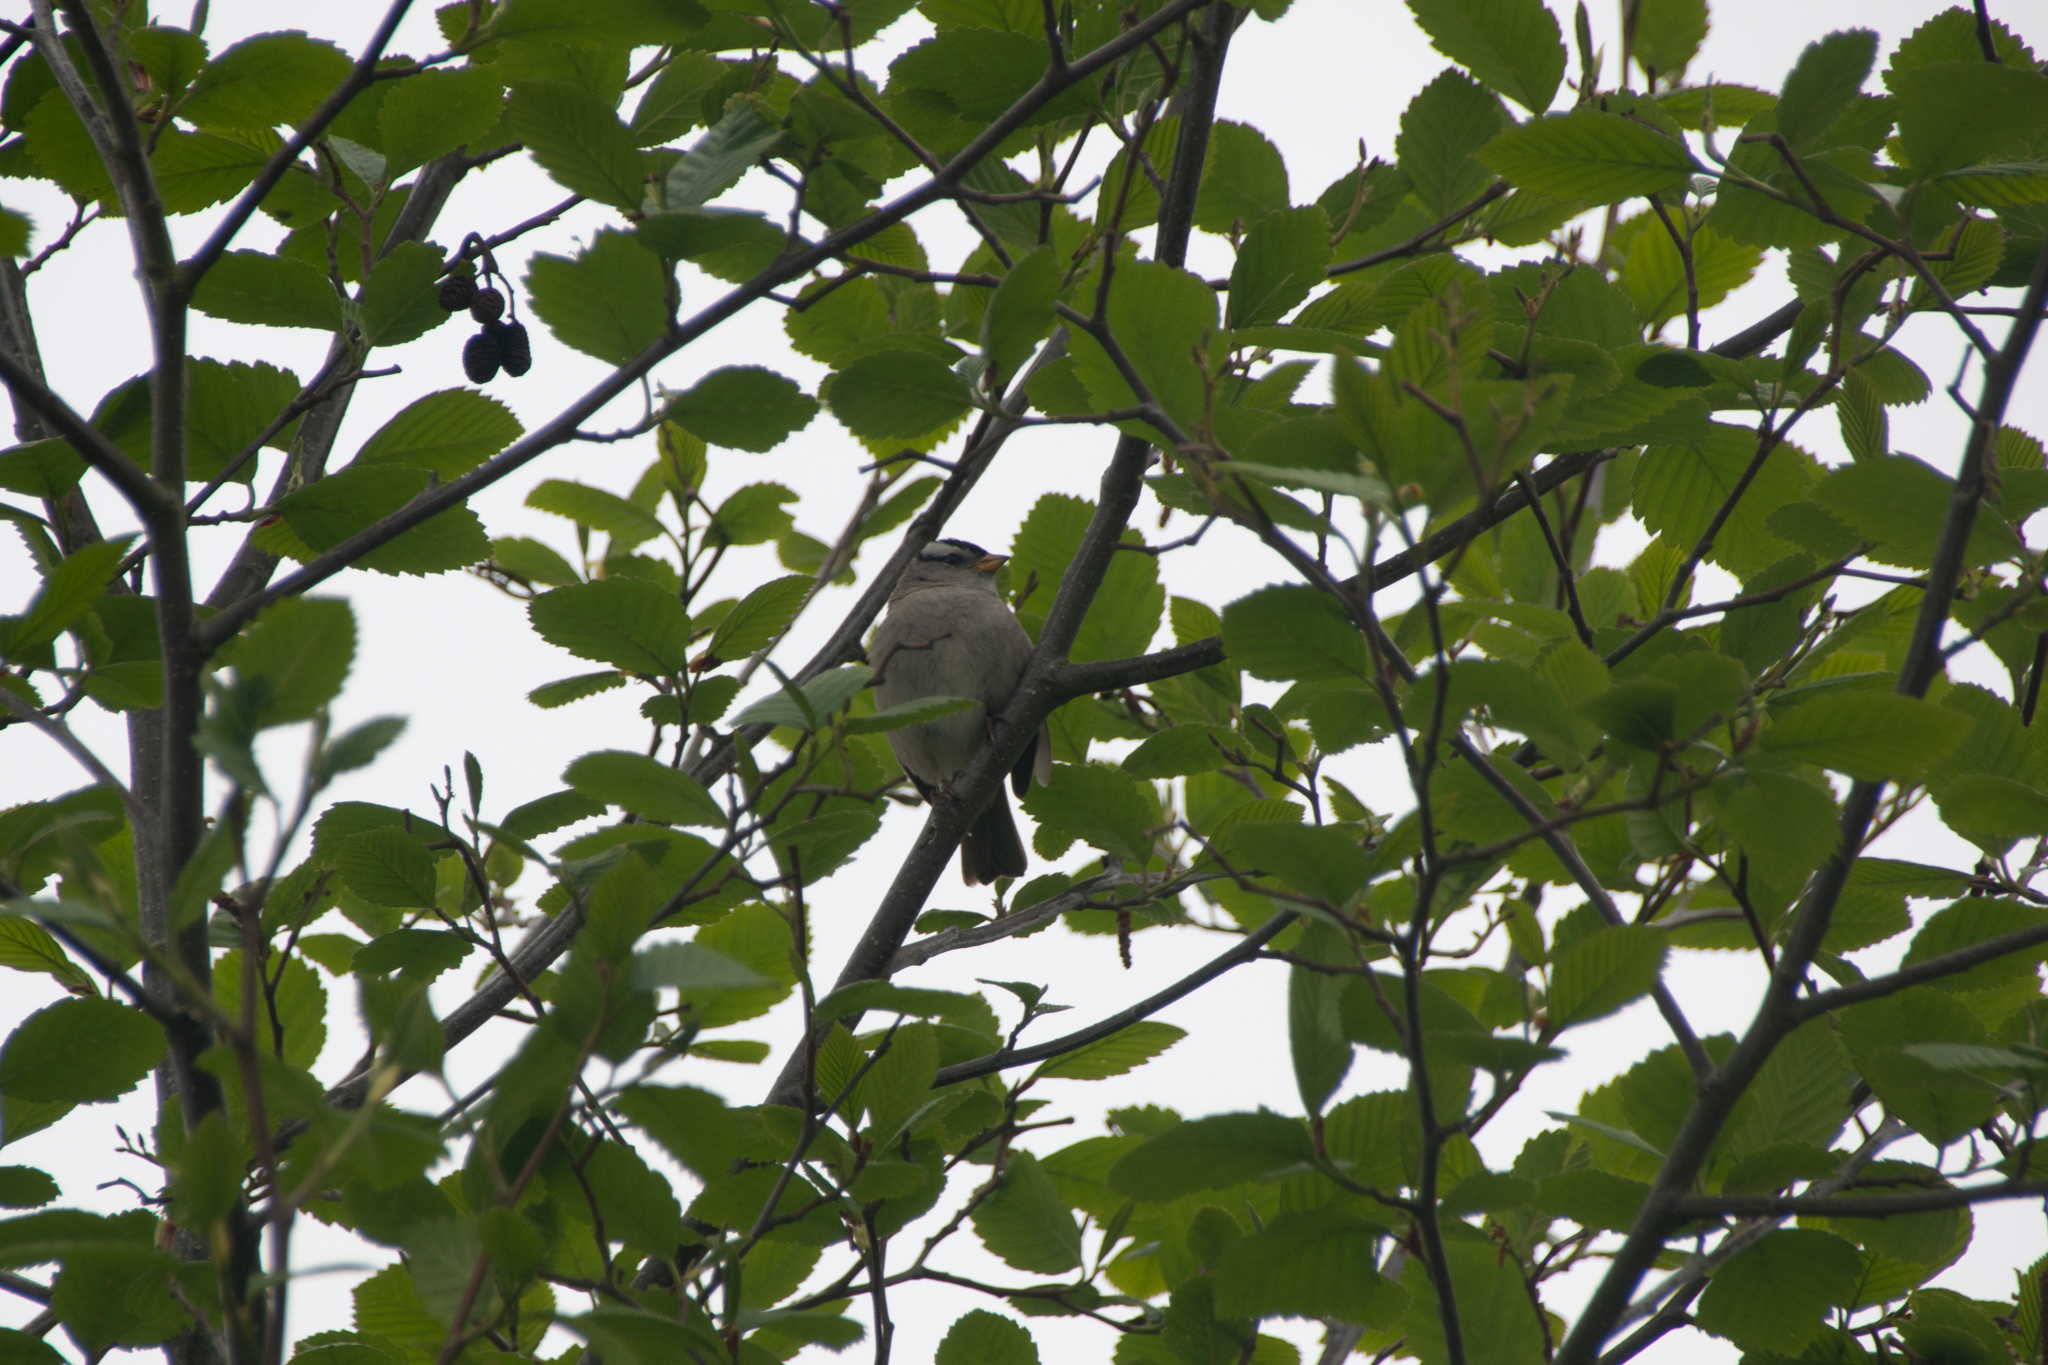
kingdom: Animalia
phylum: Chordata
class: Aves
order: Passeriformes
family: Passerellidae
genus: Zonotrichia
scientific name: Zonotrichia leucophrys
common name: White-crowned sparrow
